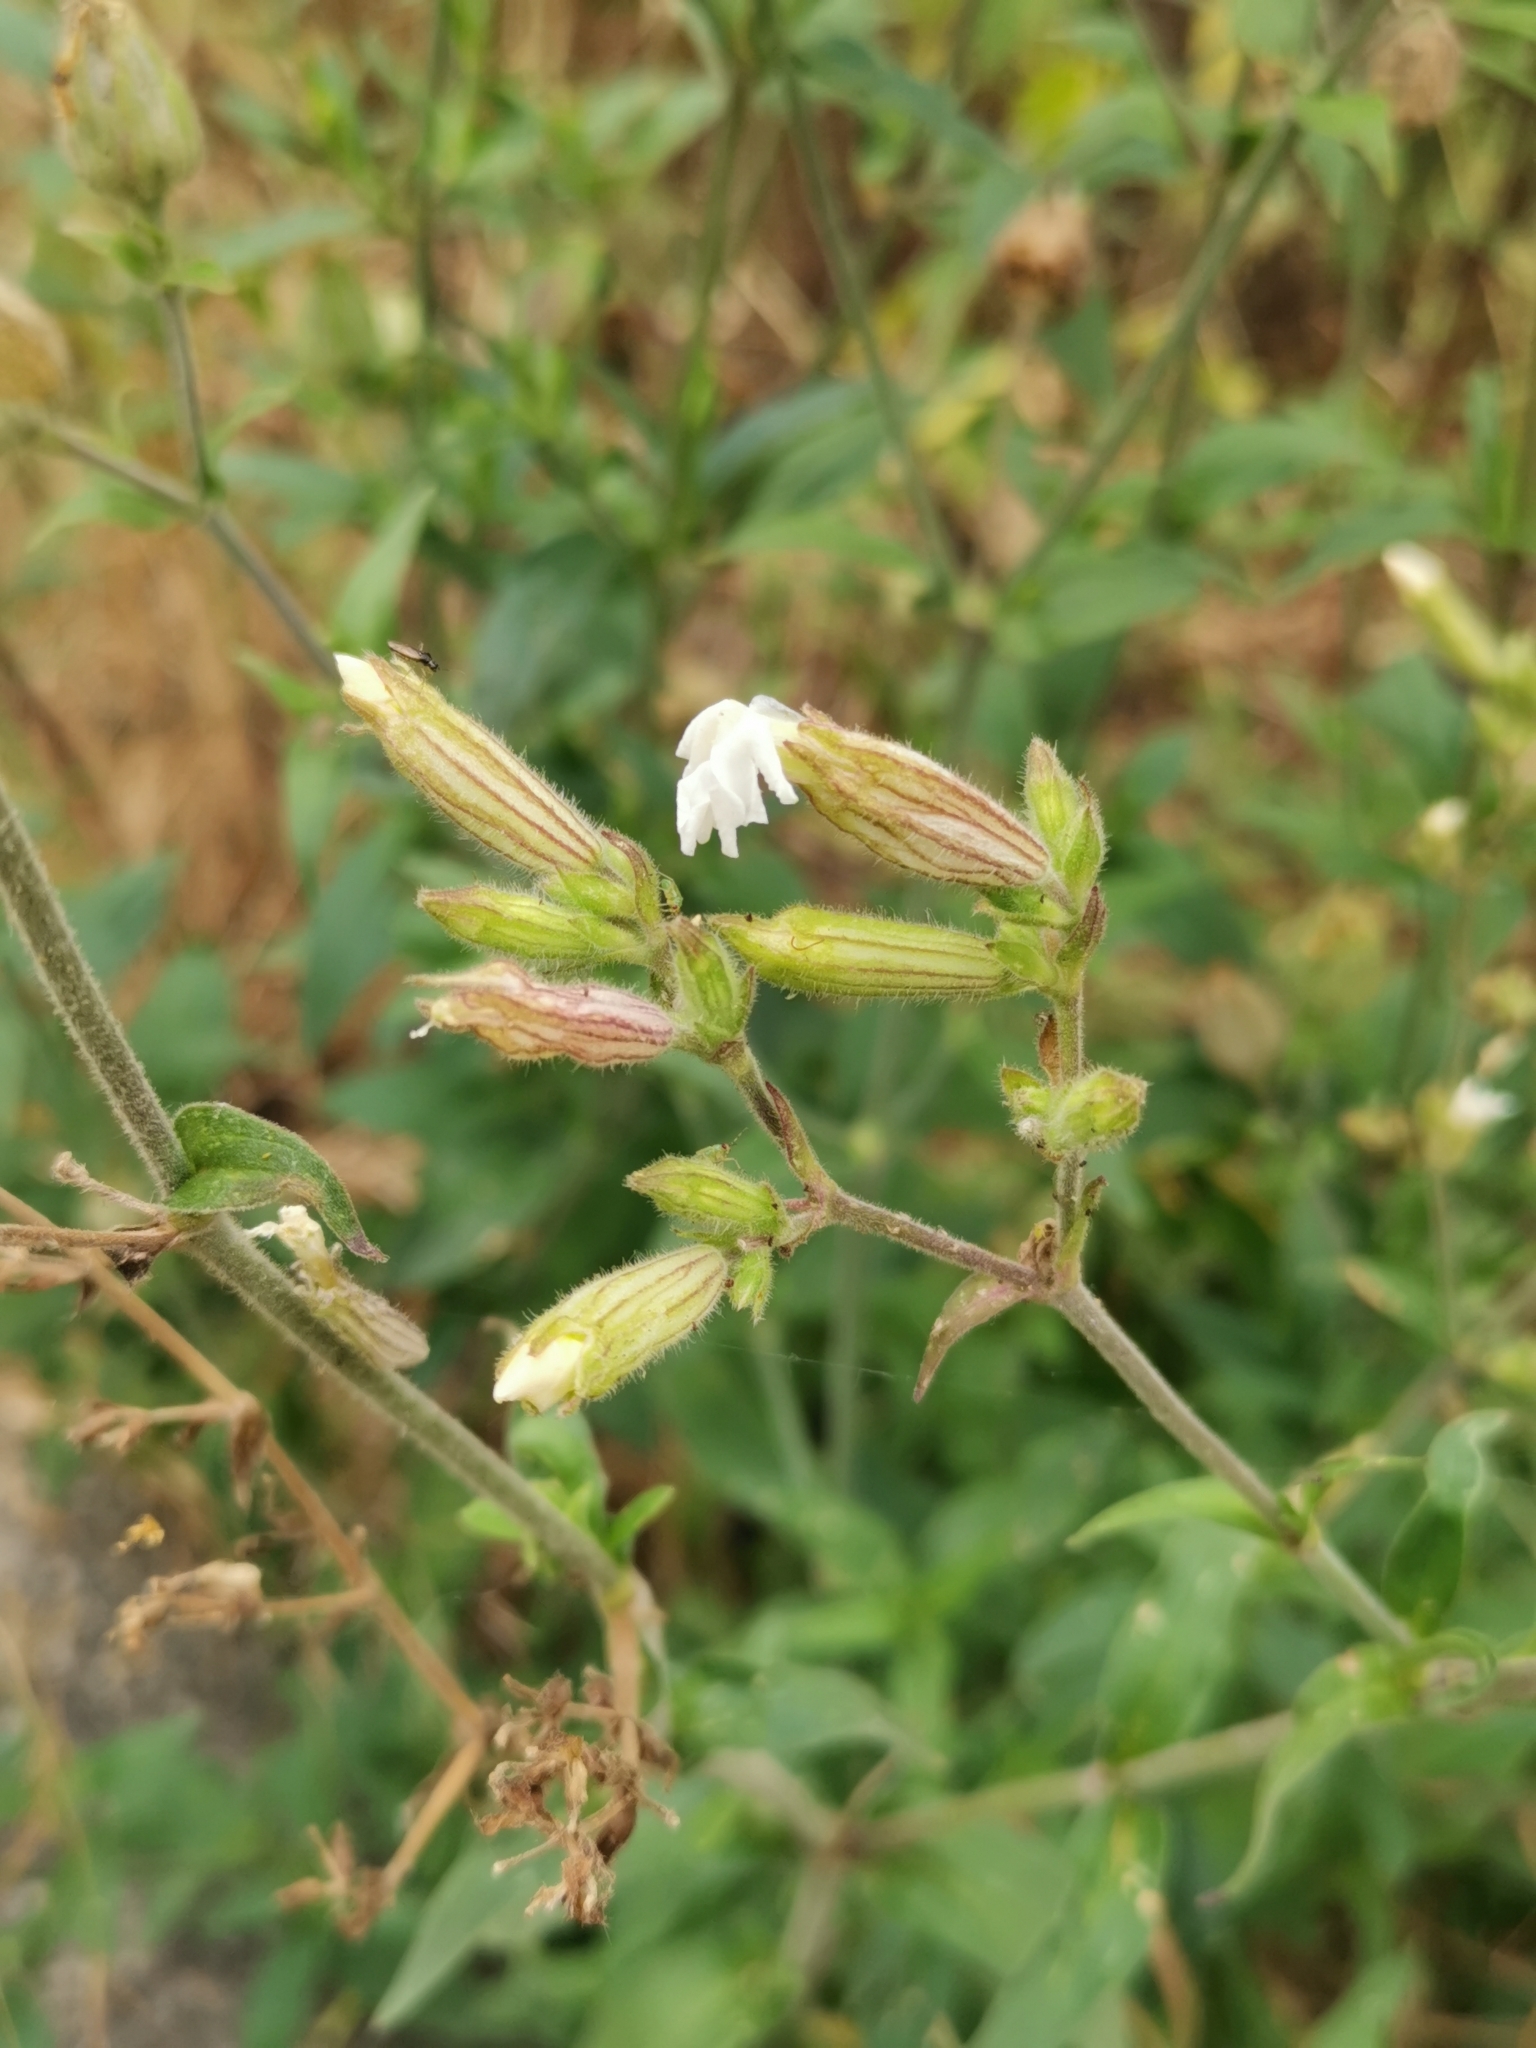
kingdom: Plantae
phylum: Tracheophyta
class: Magnoliopsida
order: Caryophyllales
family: Caryophyllaceae
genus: Silene
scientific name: Silene latifolia
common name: White campion
